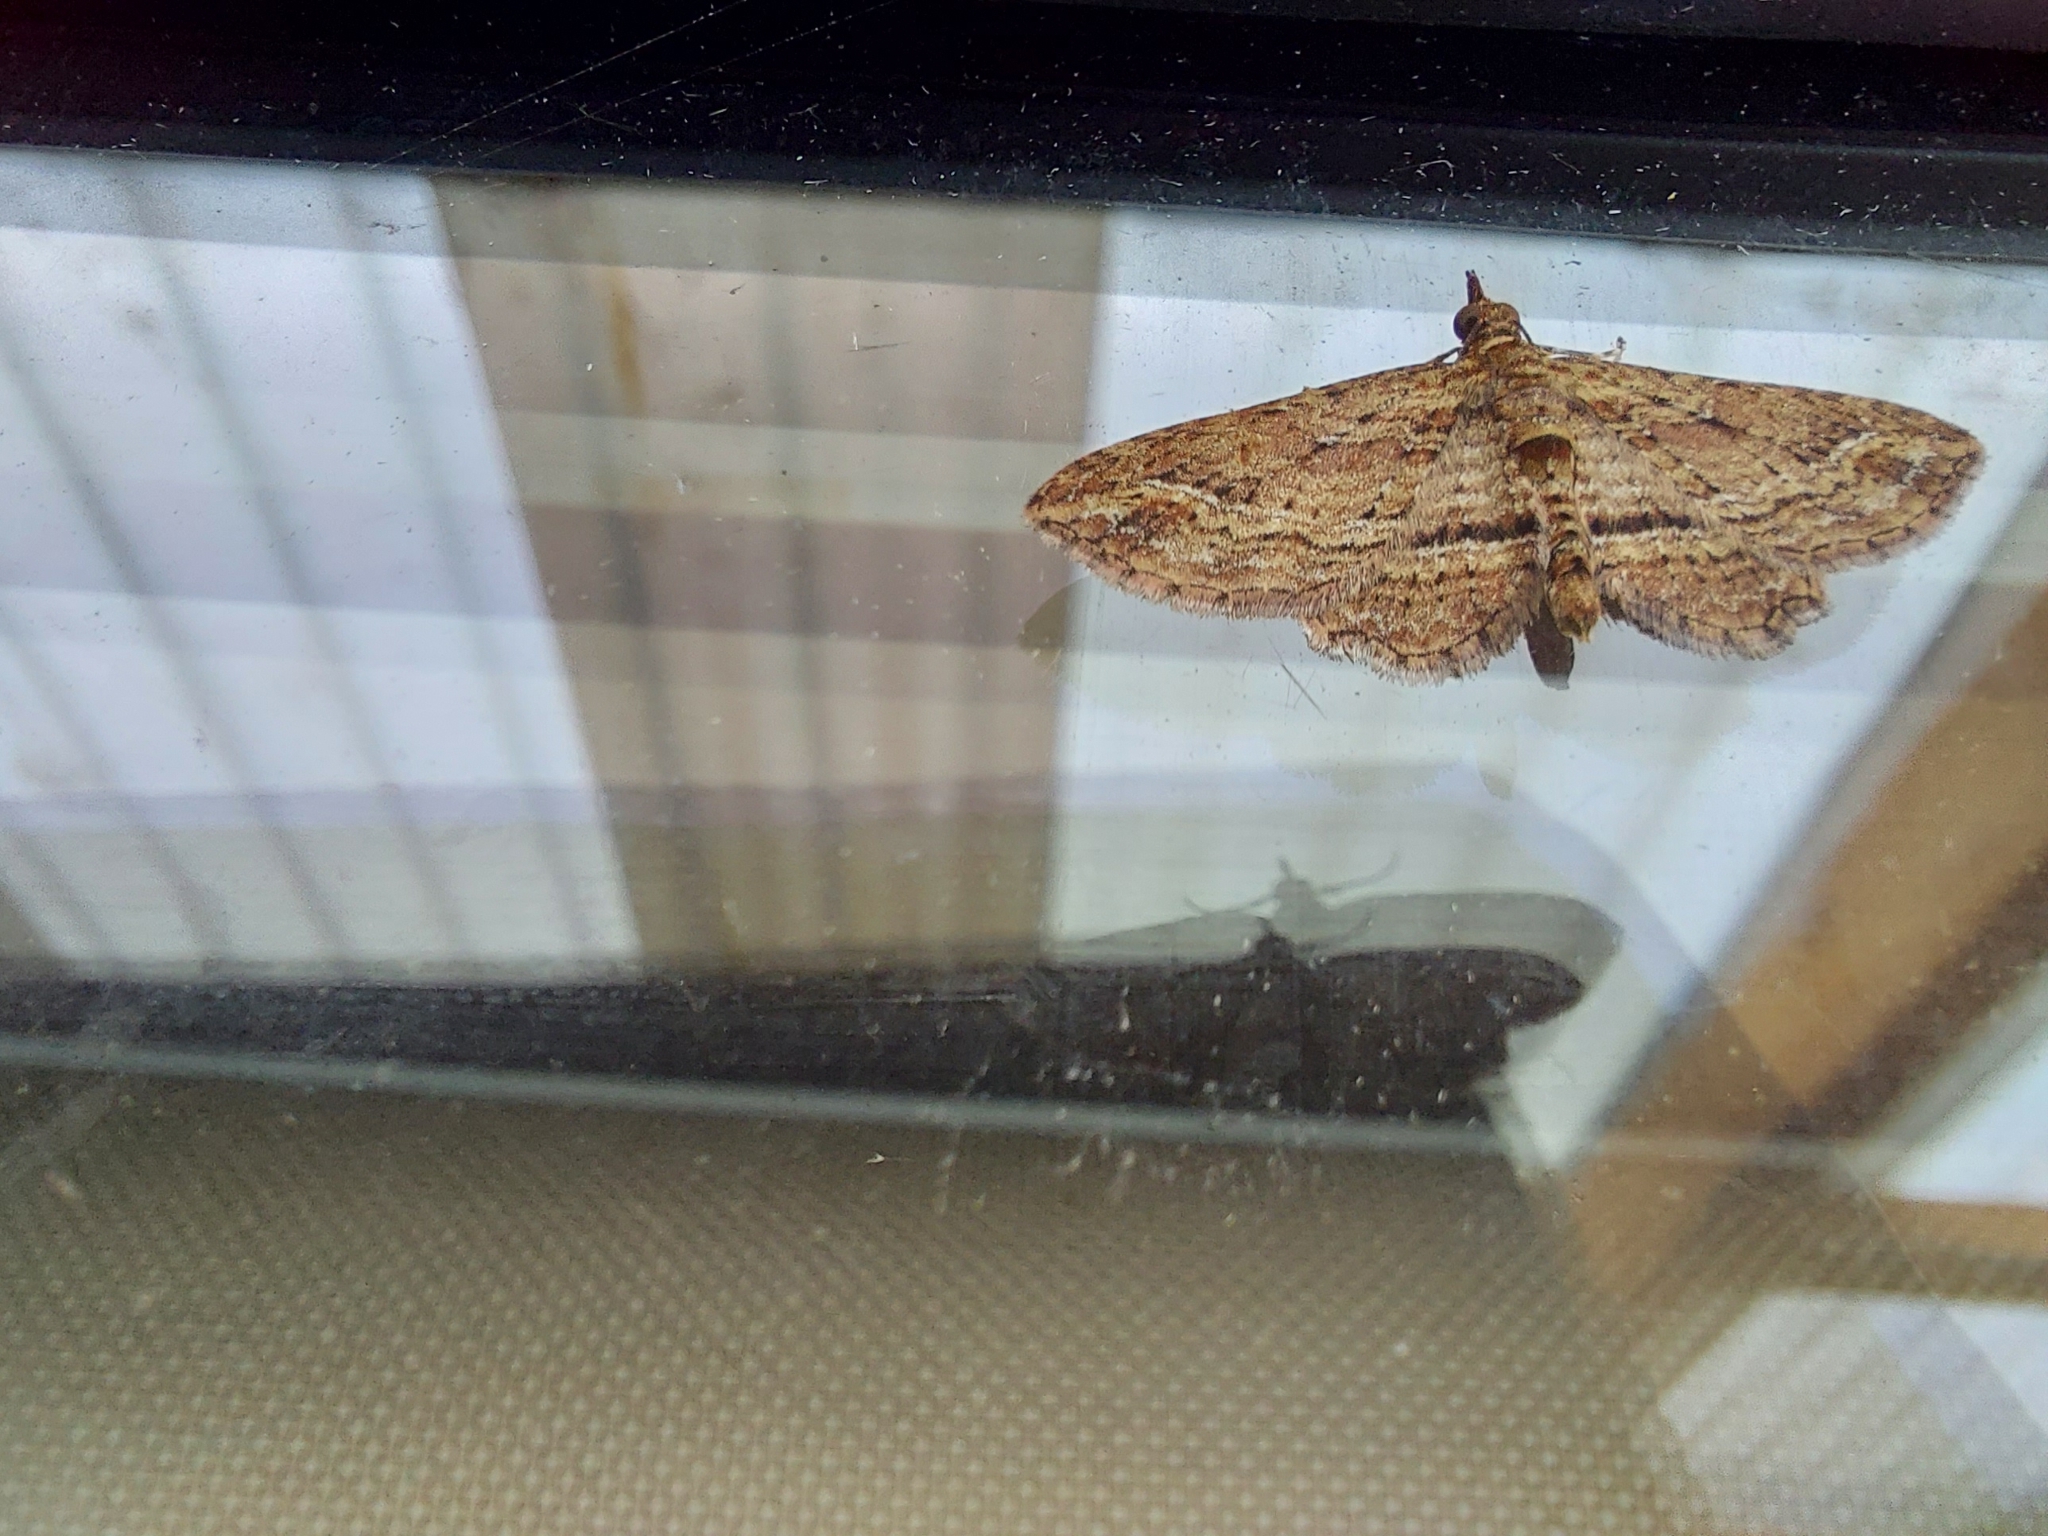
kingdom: Animalia
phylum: Arthropoda
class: Insecta
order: Lepidoptera
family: Geometridae
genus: Chloroclystis
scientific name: Chloroclystis filata
